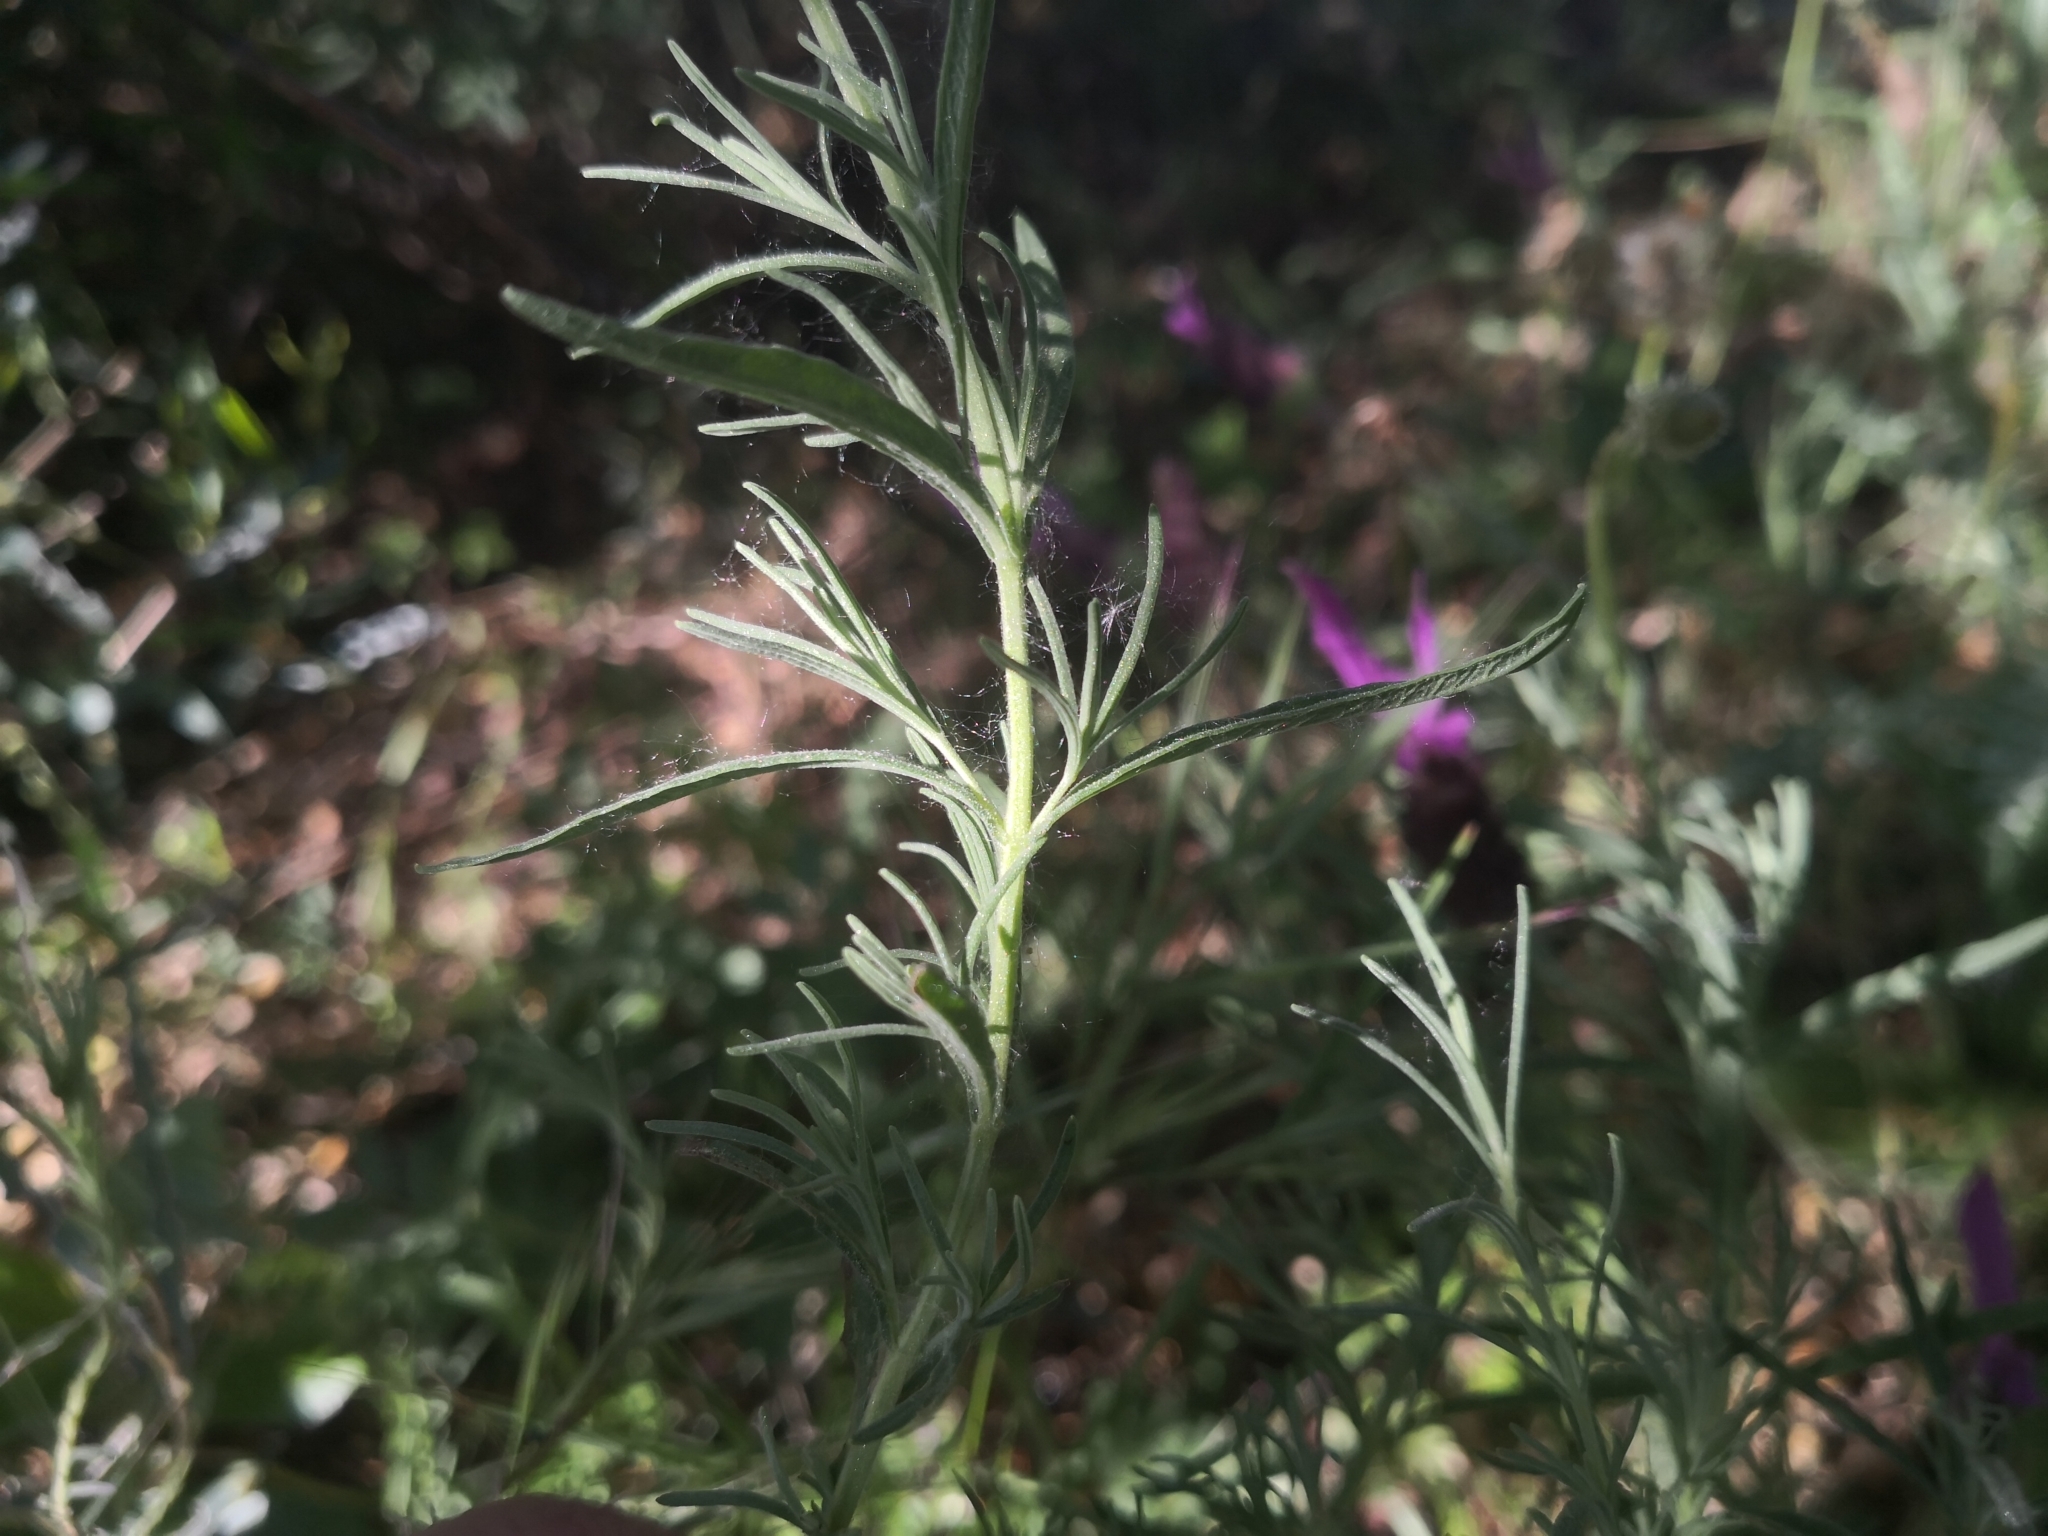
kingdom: Plantae
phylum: Tracheophyta
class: Magnoliopsida
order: Lamiales
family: Lamiaceae
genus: Lavandula
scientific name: Lavandula pedunculata
